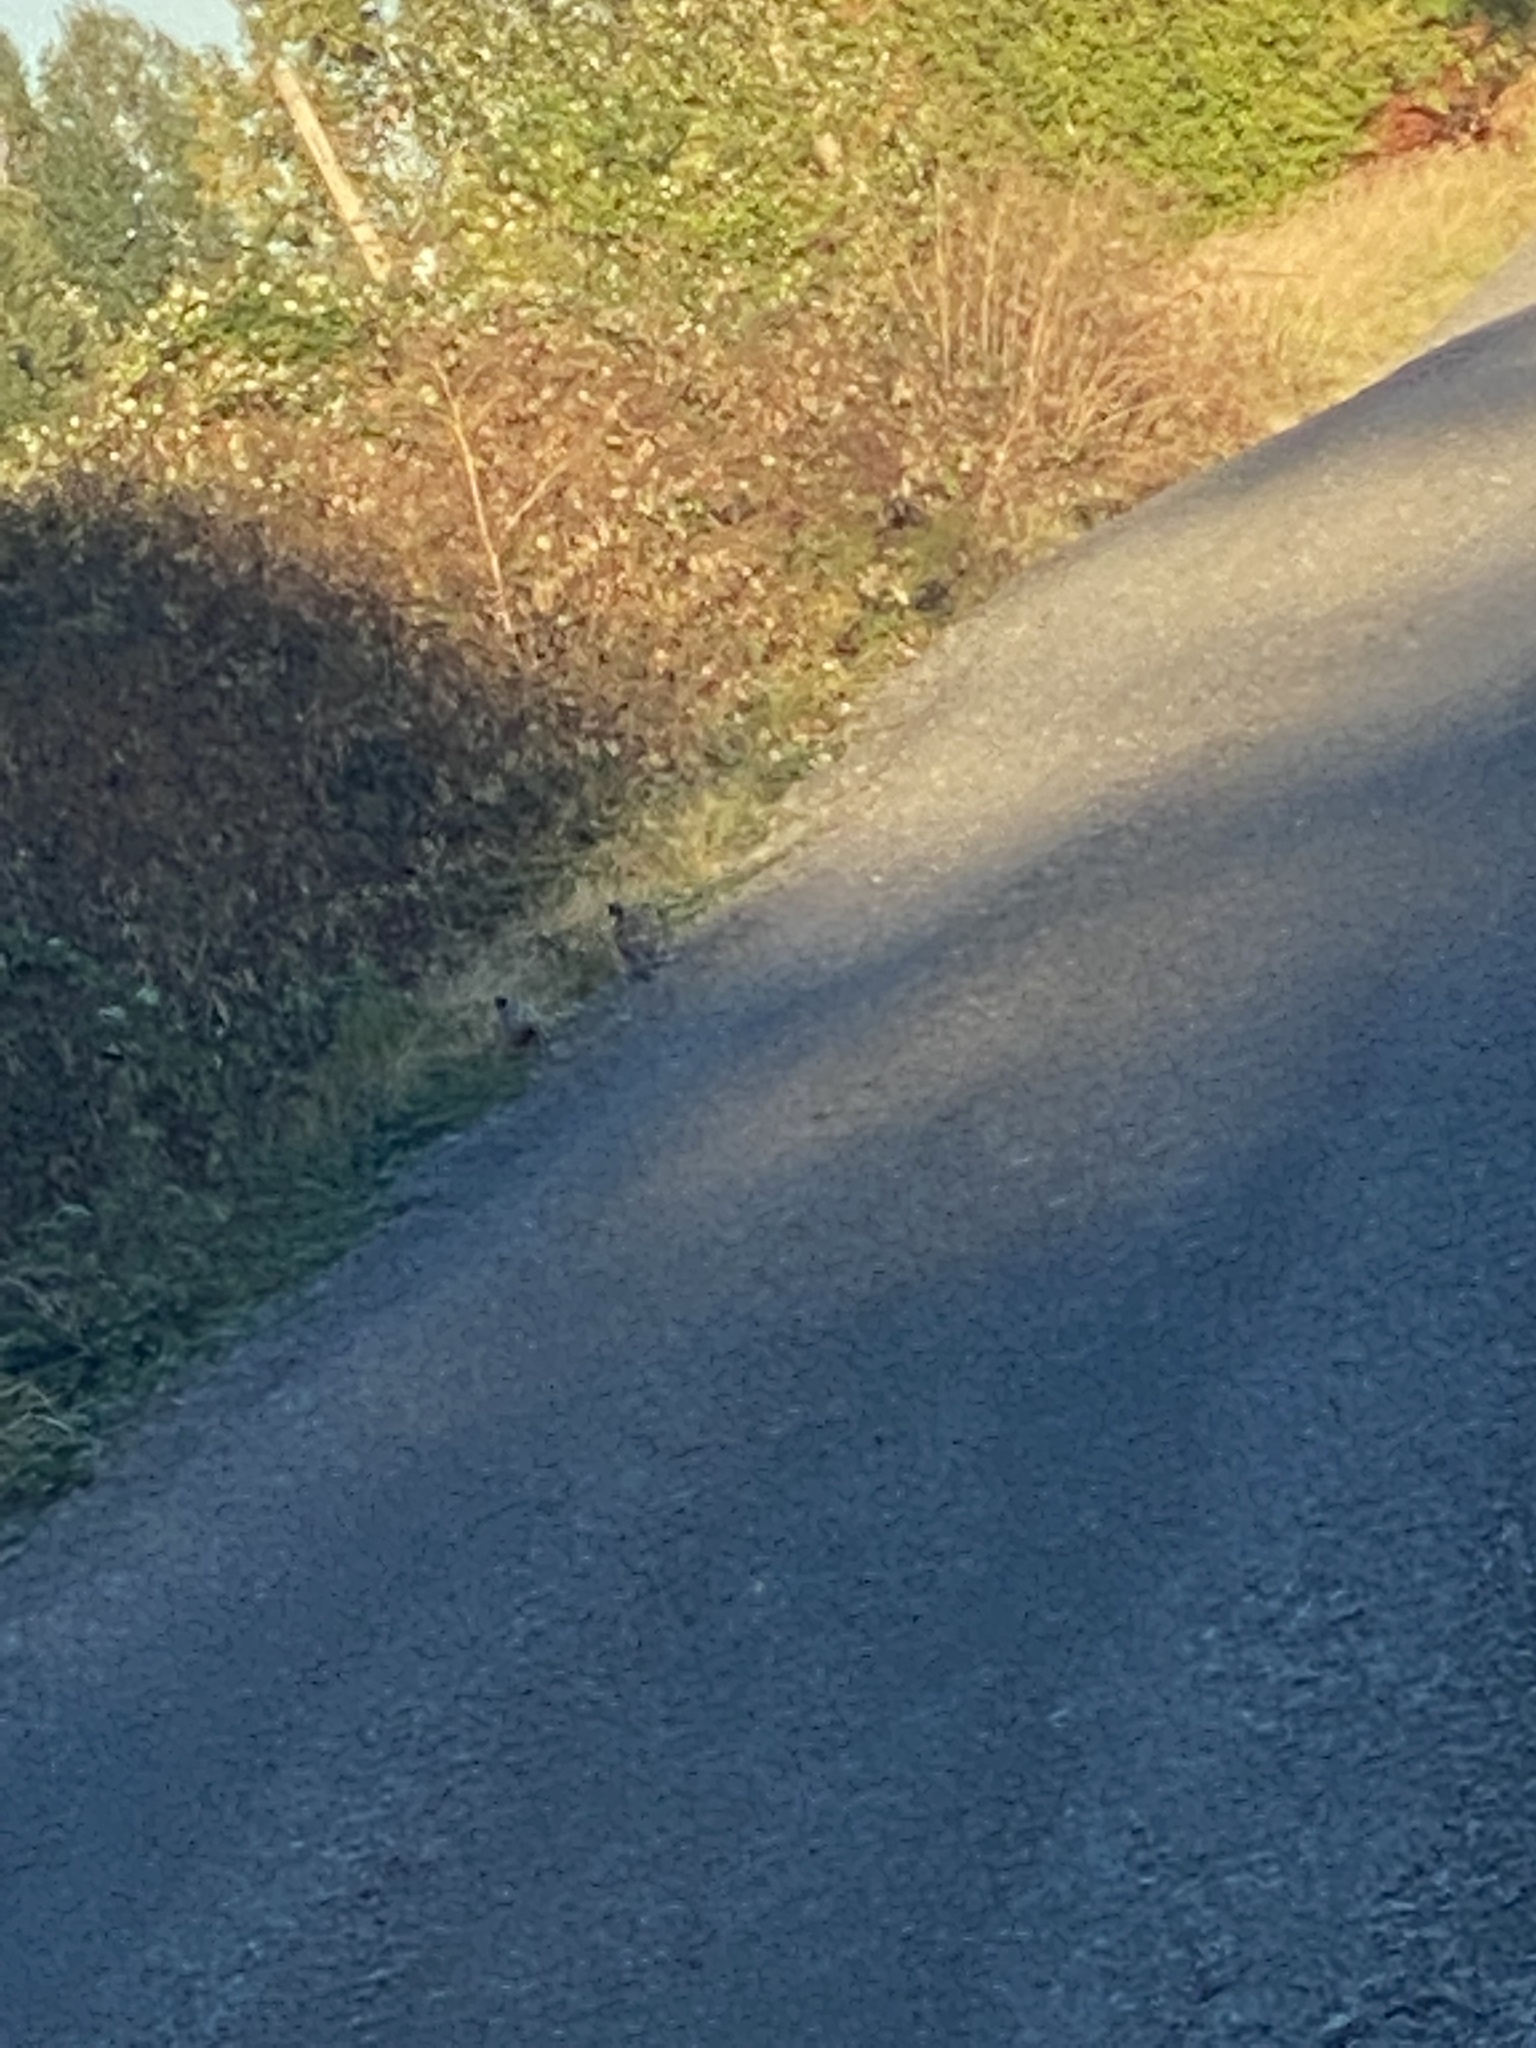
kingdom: Animalia
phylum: Chordata
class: Aves
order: Galliformes
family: Phasianidae
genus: Phasianus
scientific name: Phasianus colchicus
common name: Common pheasant
